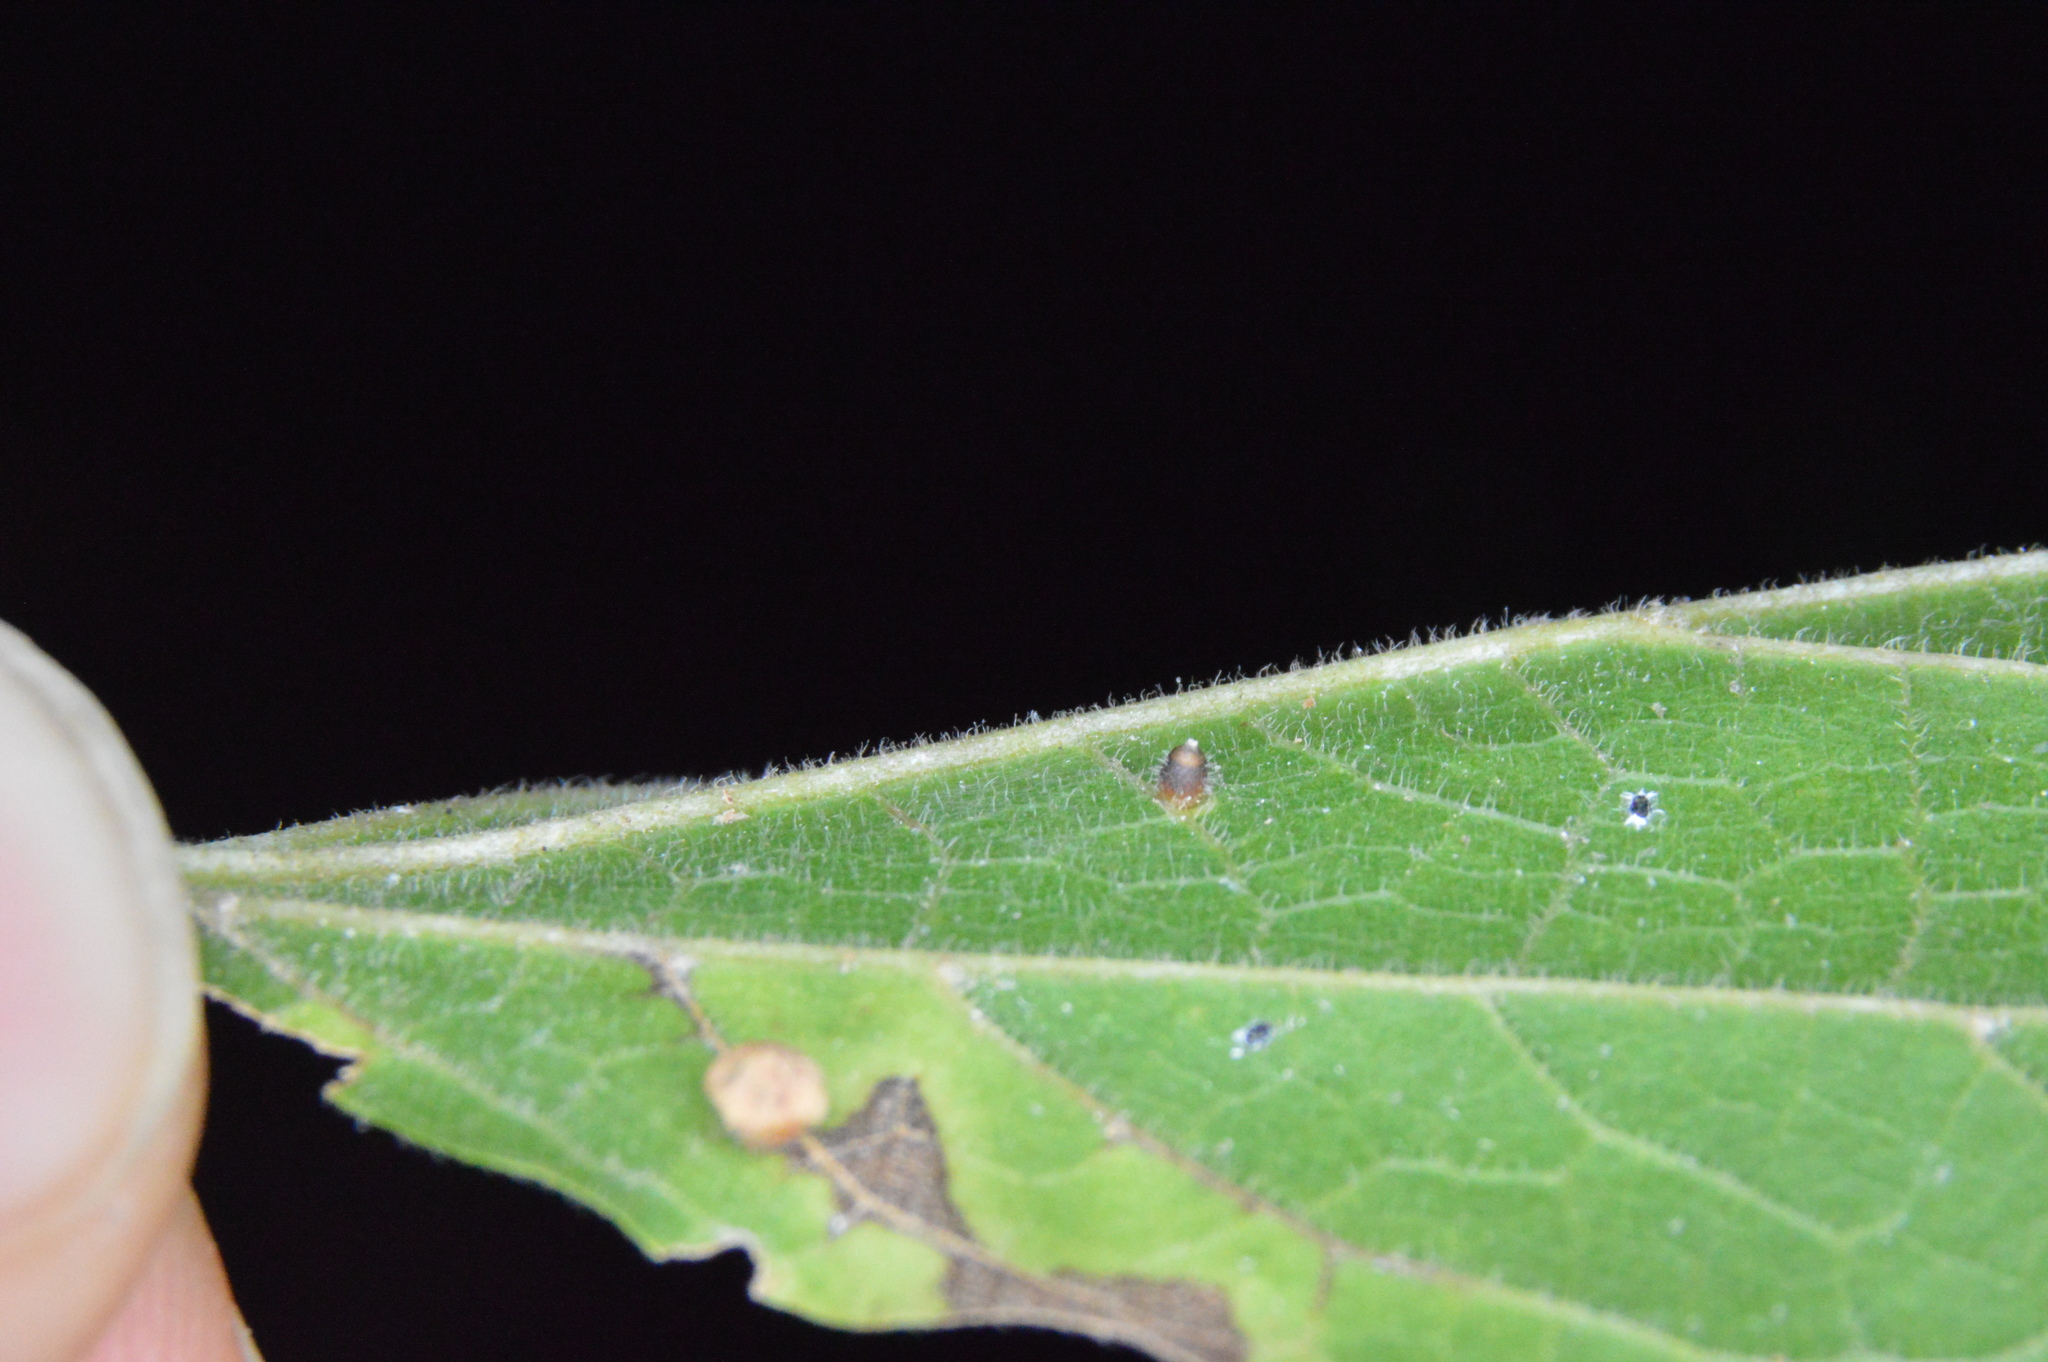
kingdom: Animalia
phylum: Arthropoda
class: Insecta
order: Diptera
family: Cecidomyiidae
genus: Celticecis
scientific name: Celticecis cupiformis
